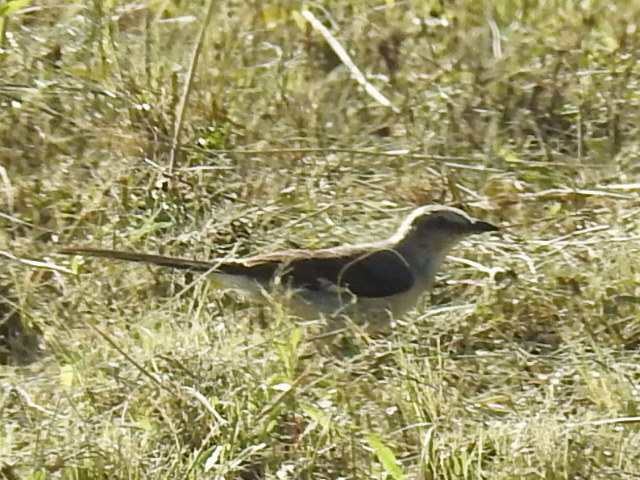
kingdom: Animalia
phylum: Chordata
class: Aves
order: Passeriformes
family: Mimidae
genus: Mimus
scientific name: Mimus polyglottos
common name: Northern mockingbird
